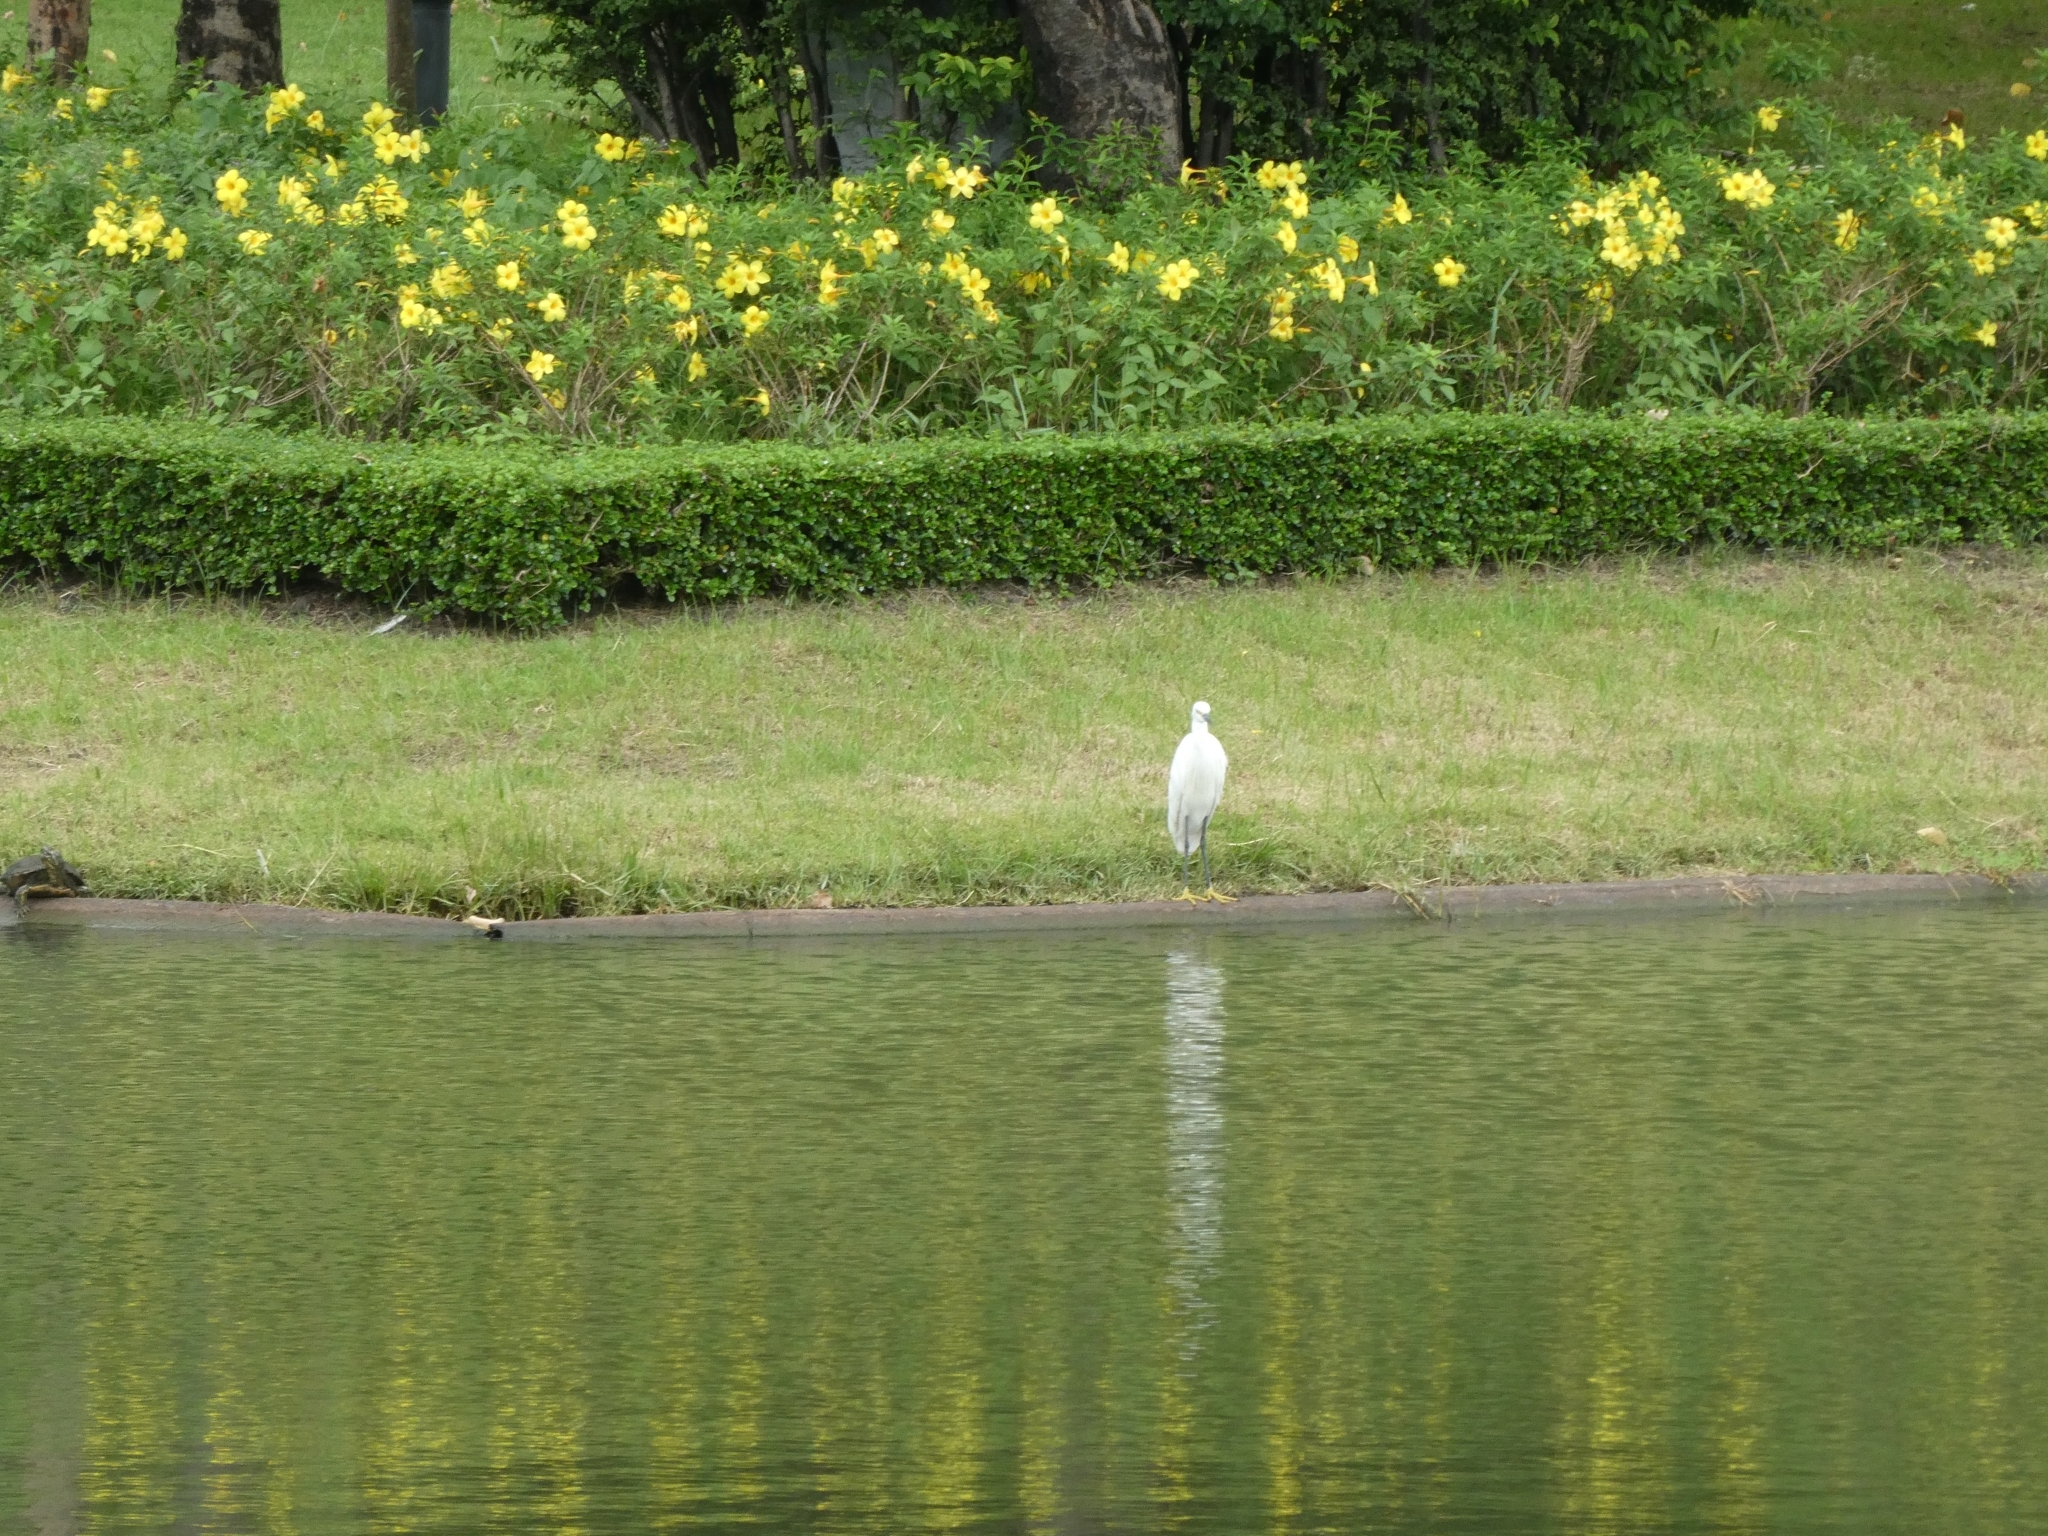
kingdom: Animalia
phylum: Chordata
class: Aves
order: Pelecaniformes
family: Ardeidae
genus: Egretta
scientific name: Egretta garzetta
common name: Little egret
